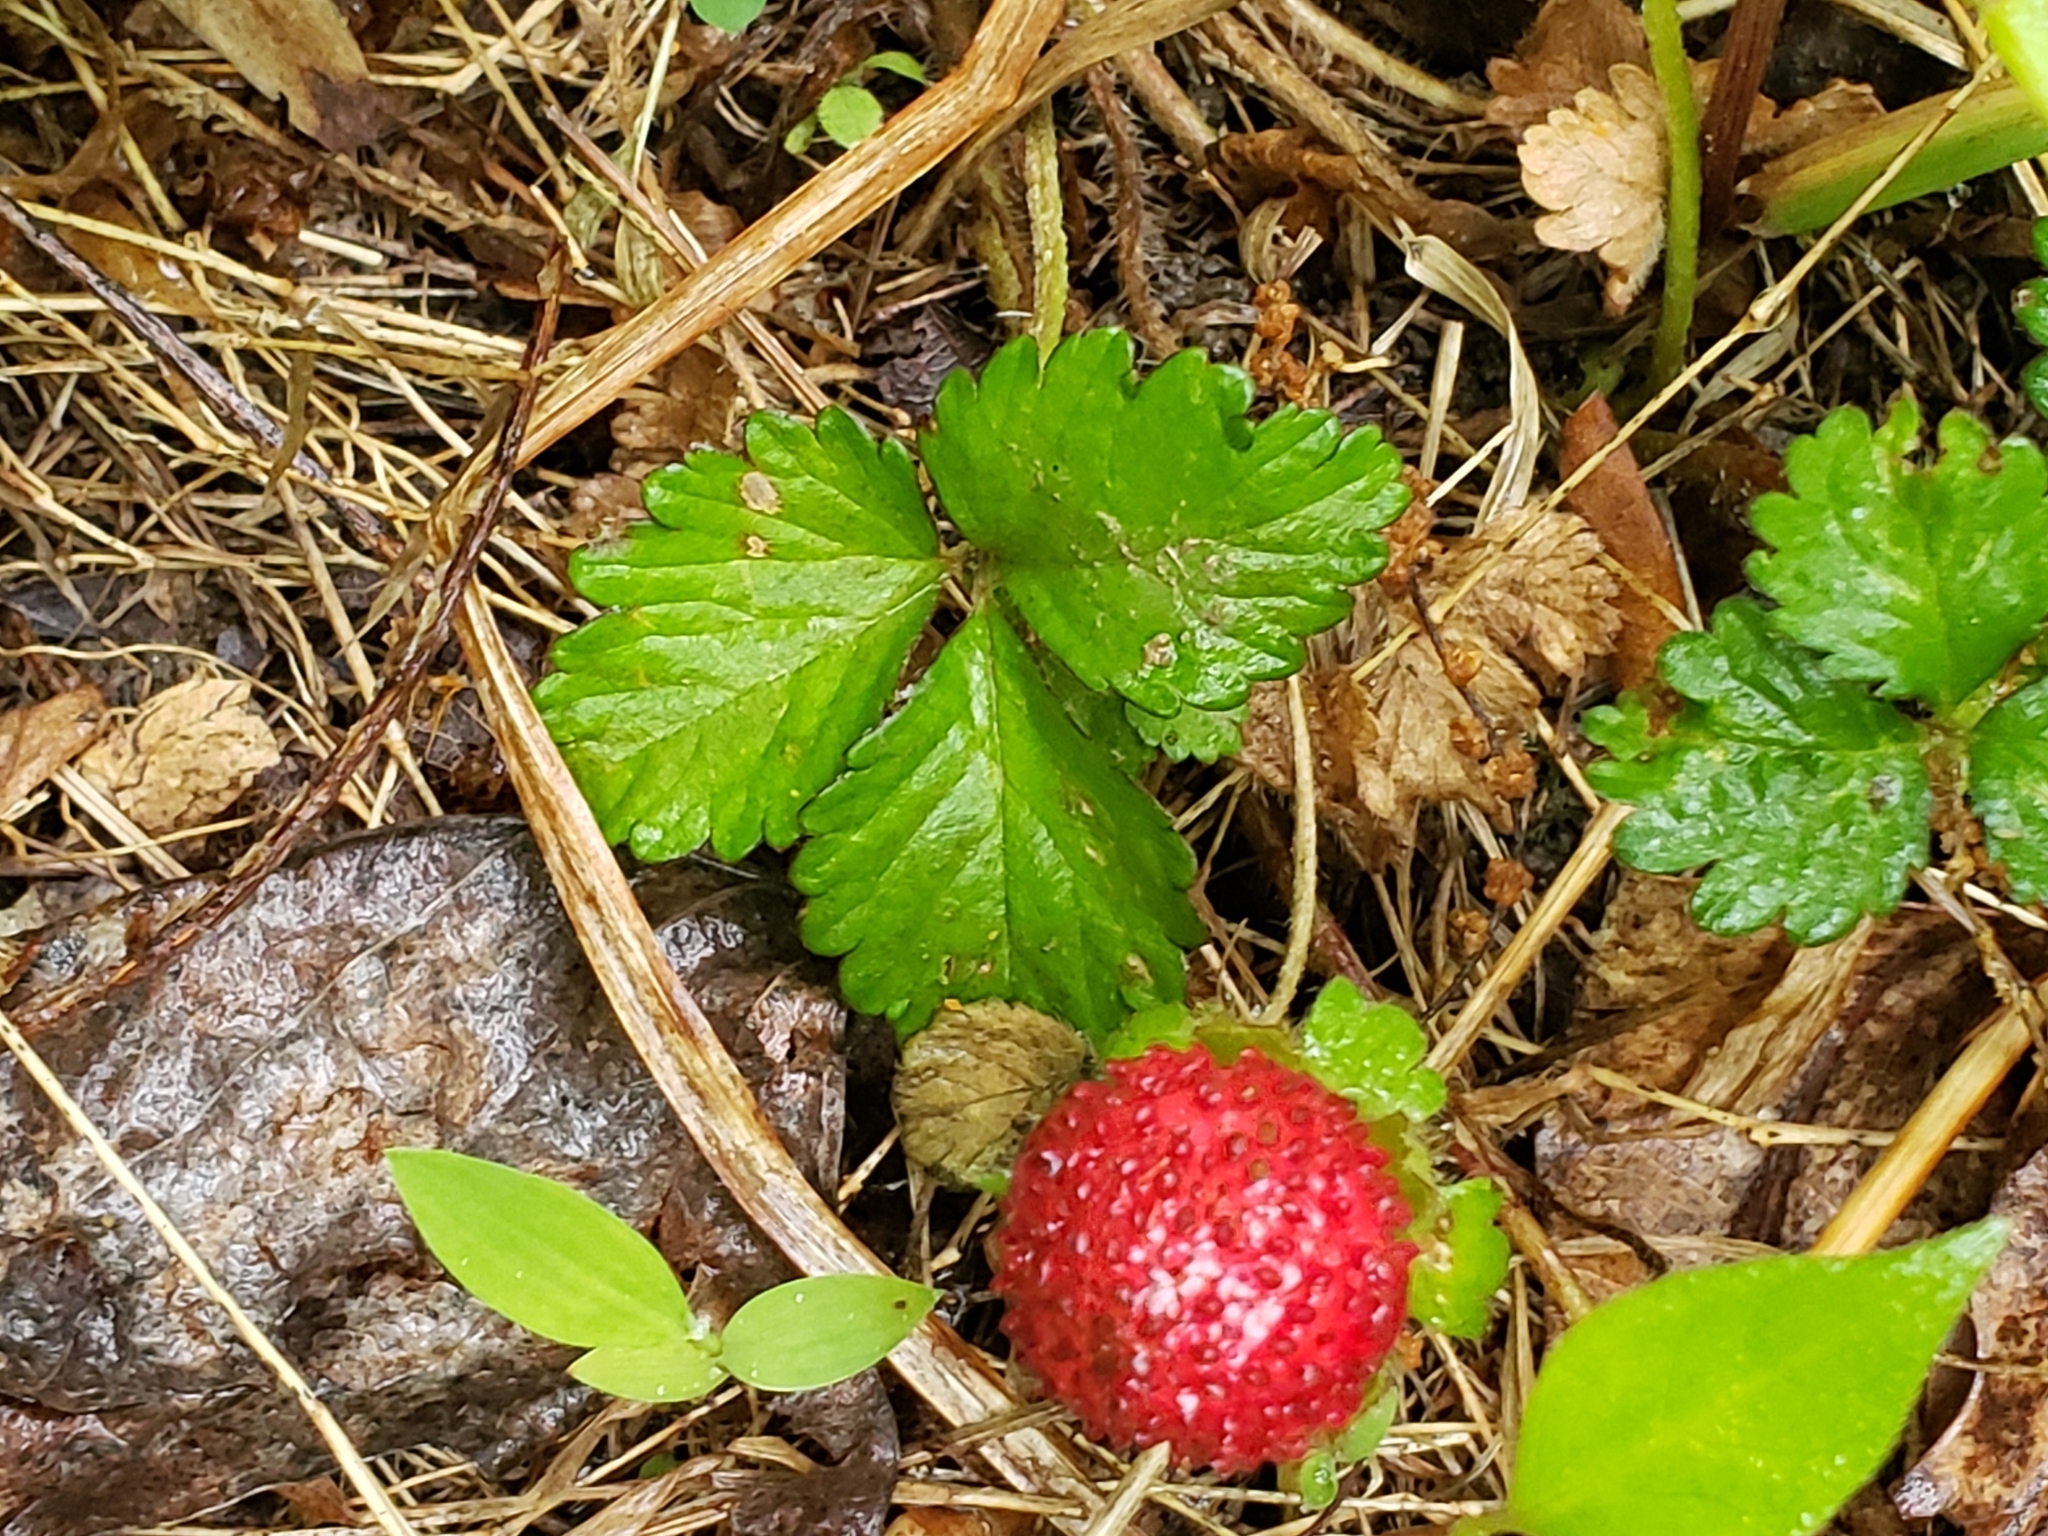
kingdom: Plantae
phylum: Tracheophyta
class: Magnoliopsida
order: Rosales
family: Rosaceae
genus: Potentilla
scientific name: Potentilla indica
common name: Yellow-flowered strawberry
